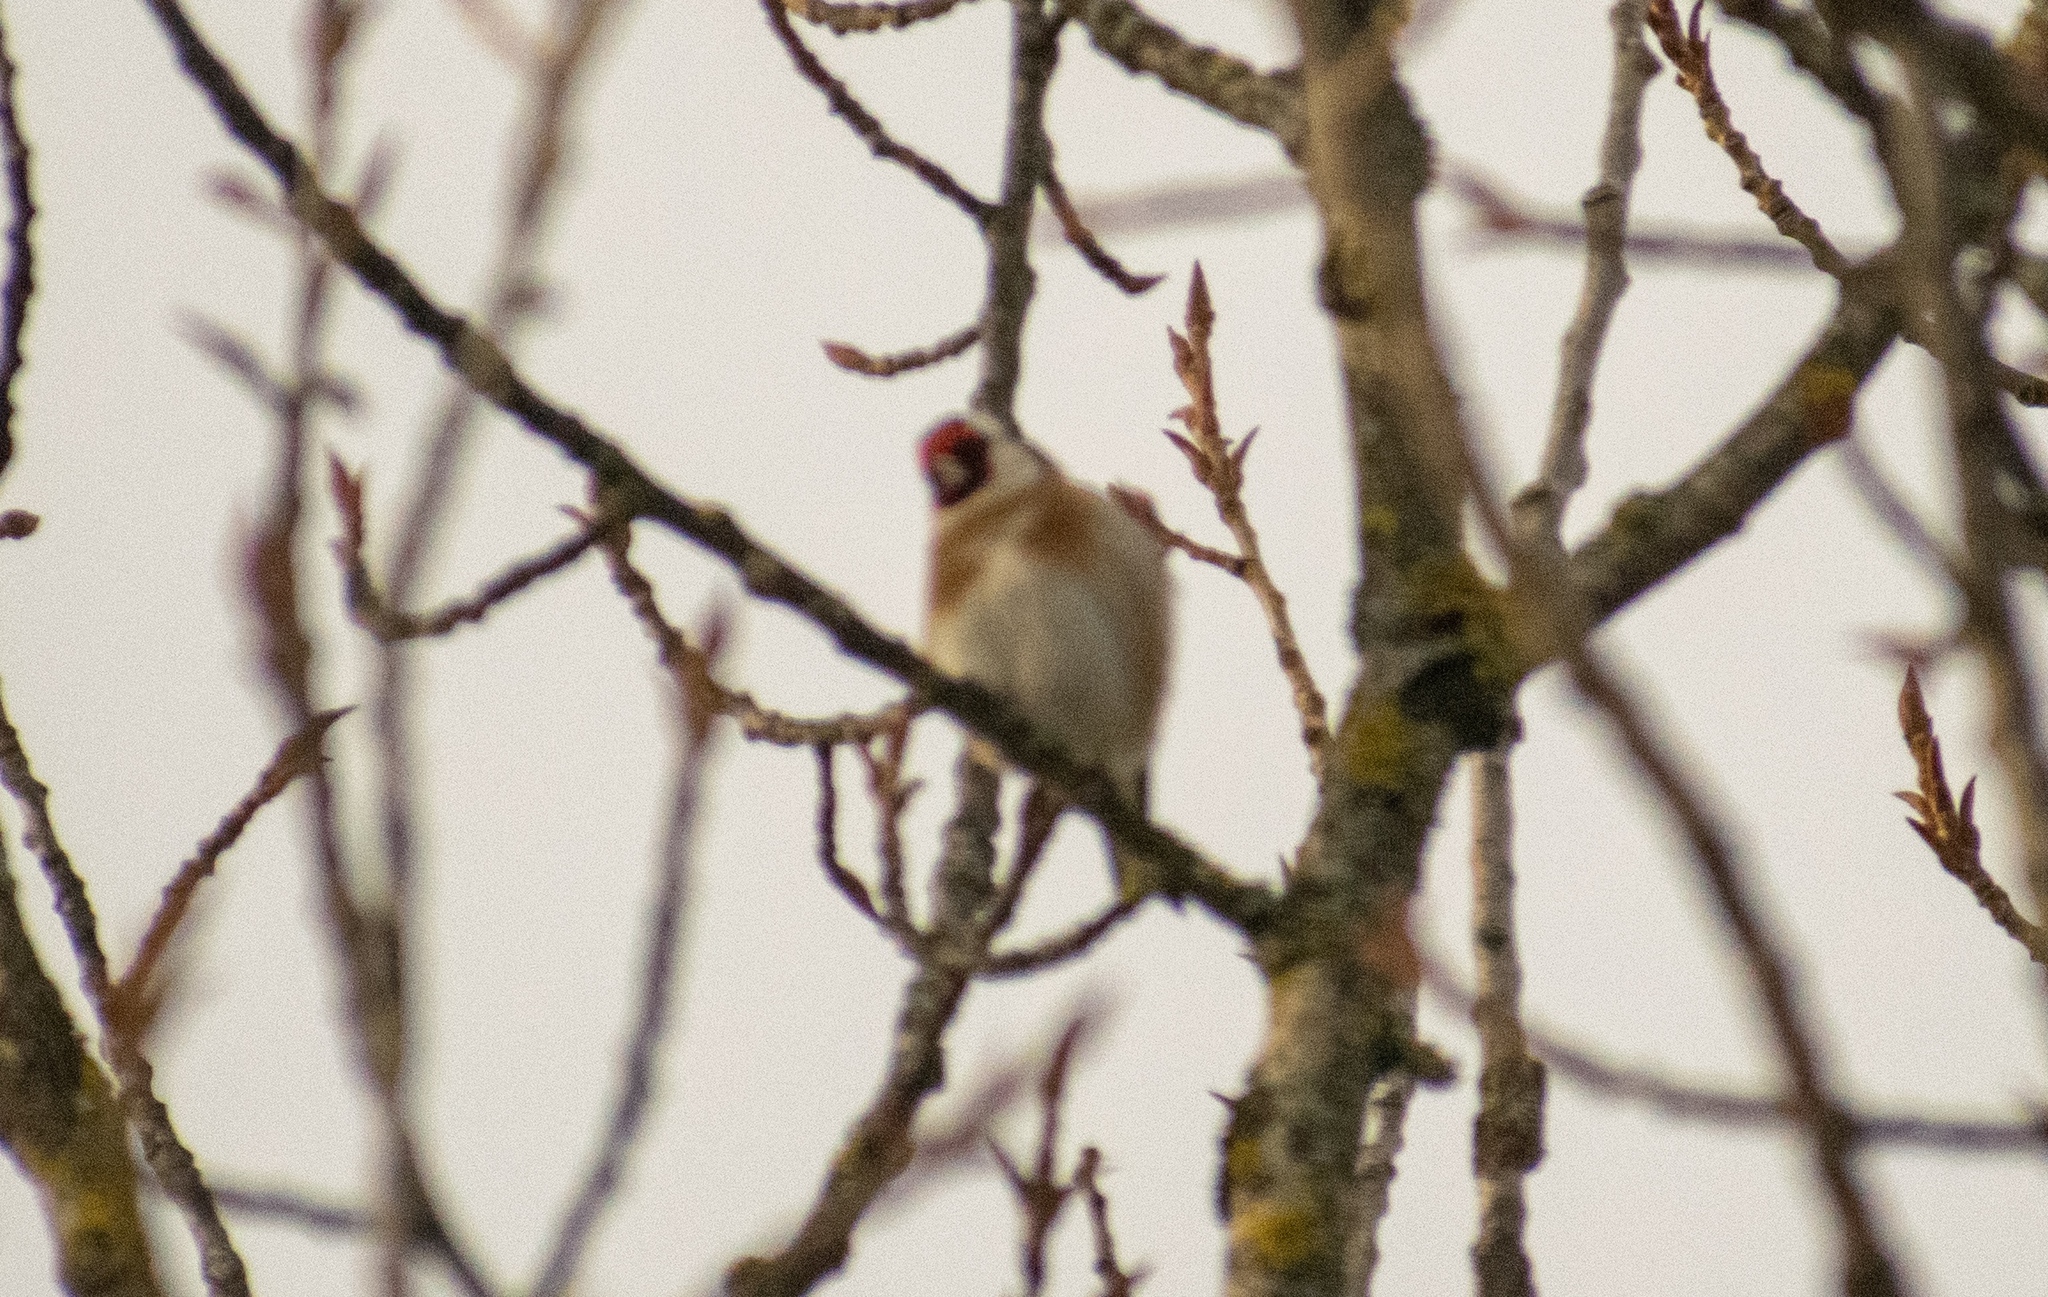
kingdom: Animalia
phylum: Chordata
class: Aves
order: Passeriformes
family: Fringillidae
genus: Carduelis
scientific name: Carduelis carduelis
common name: European goldfinch
